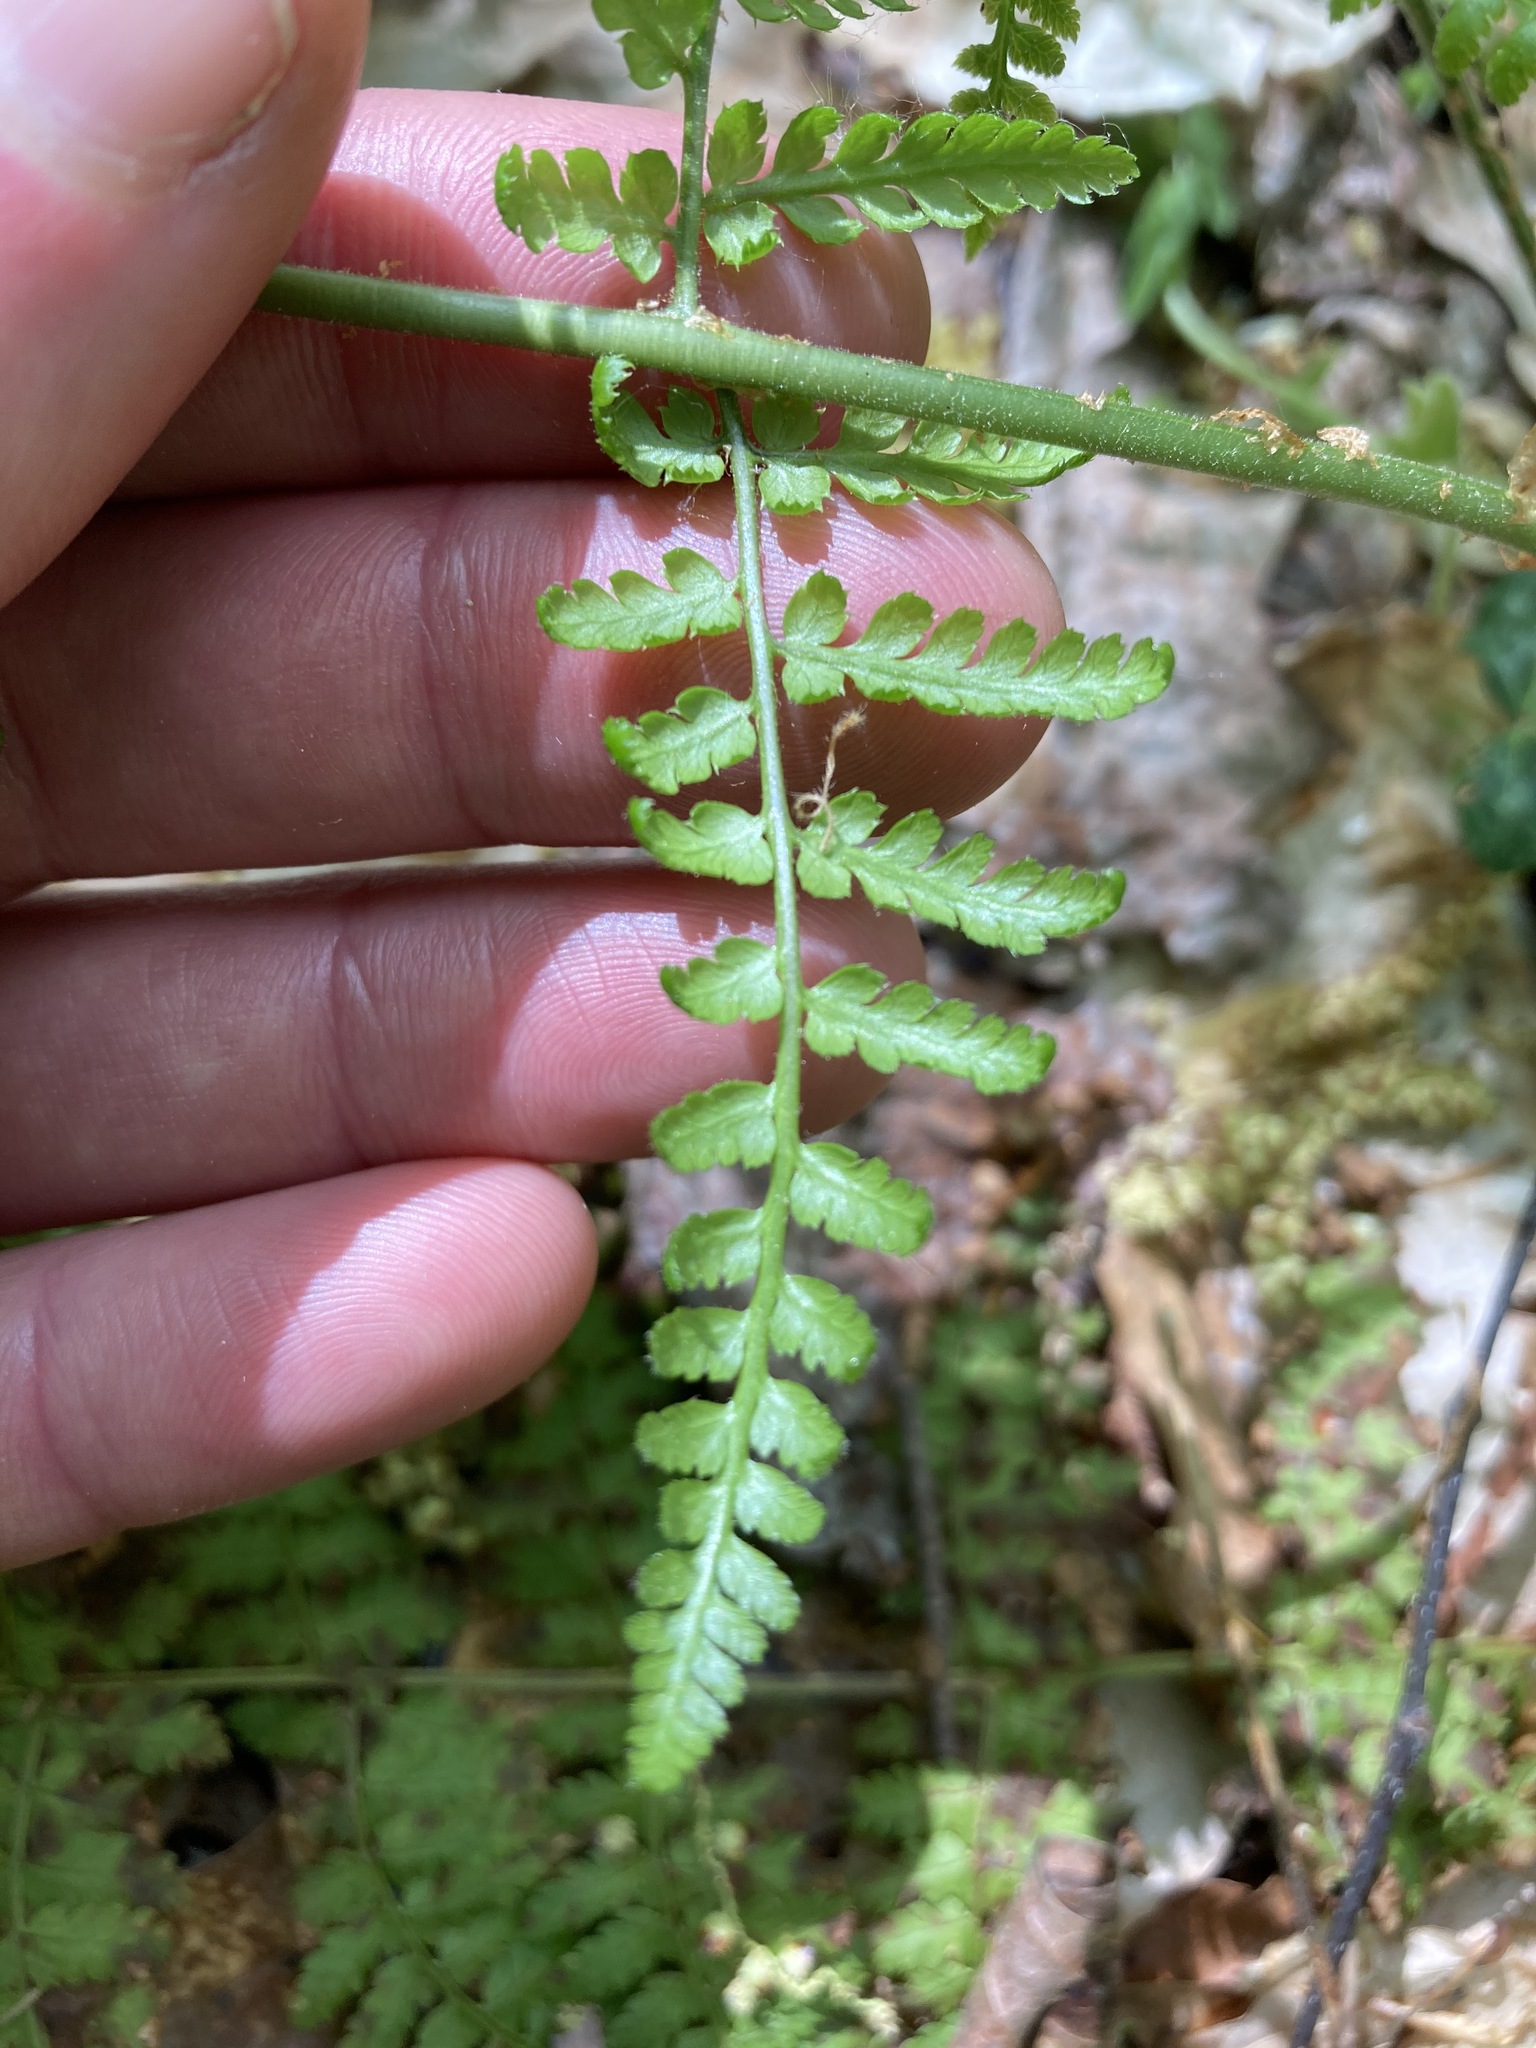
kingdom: Plantae
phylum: Tracheophyta
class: Polypodiopsida
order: Polypodiales
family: Dryopteridaceae
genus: Dryopteris
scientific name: Dryopteris intermedia
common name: Evergreen wood fern
